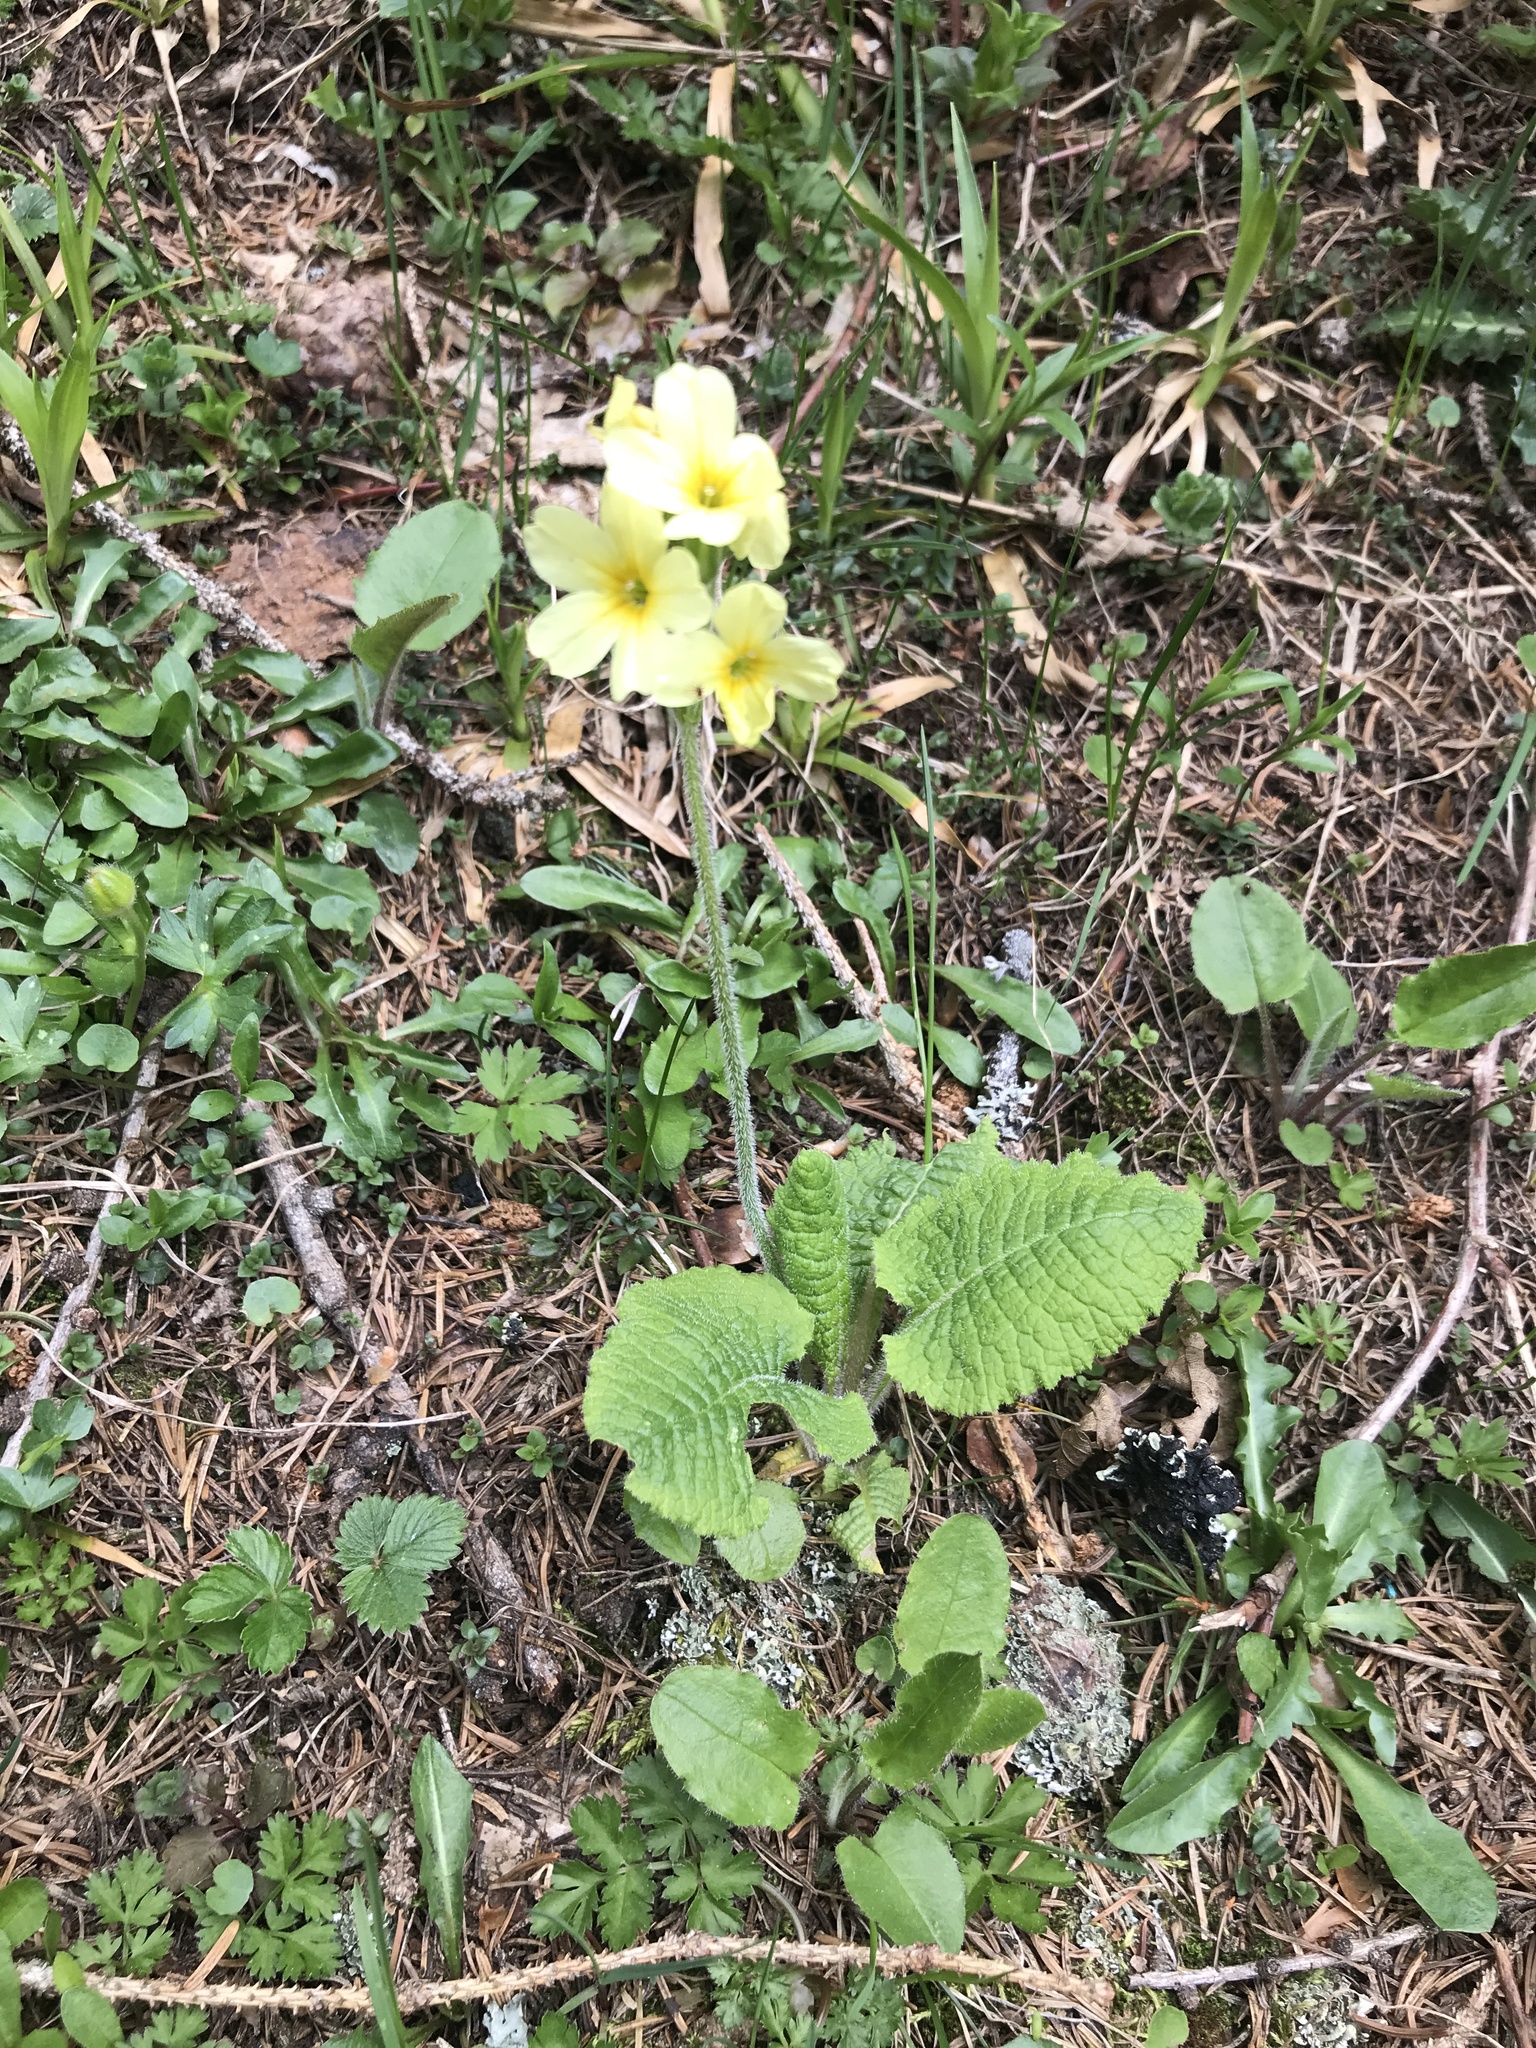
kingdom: Plantae
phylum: Tracheophyta
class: Magnoliopsida
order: Ericales
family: Primulaceae
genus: Primula
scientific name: Primula elatior
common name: Oxlip
